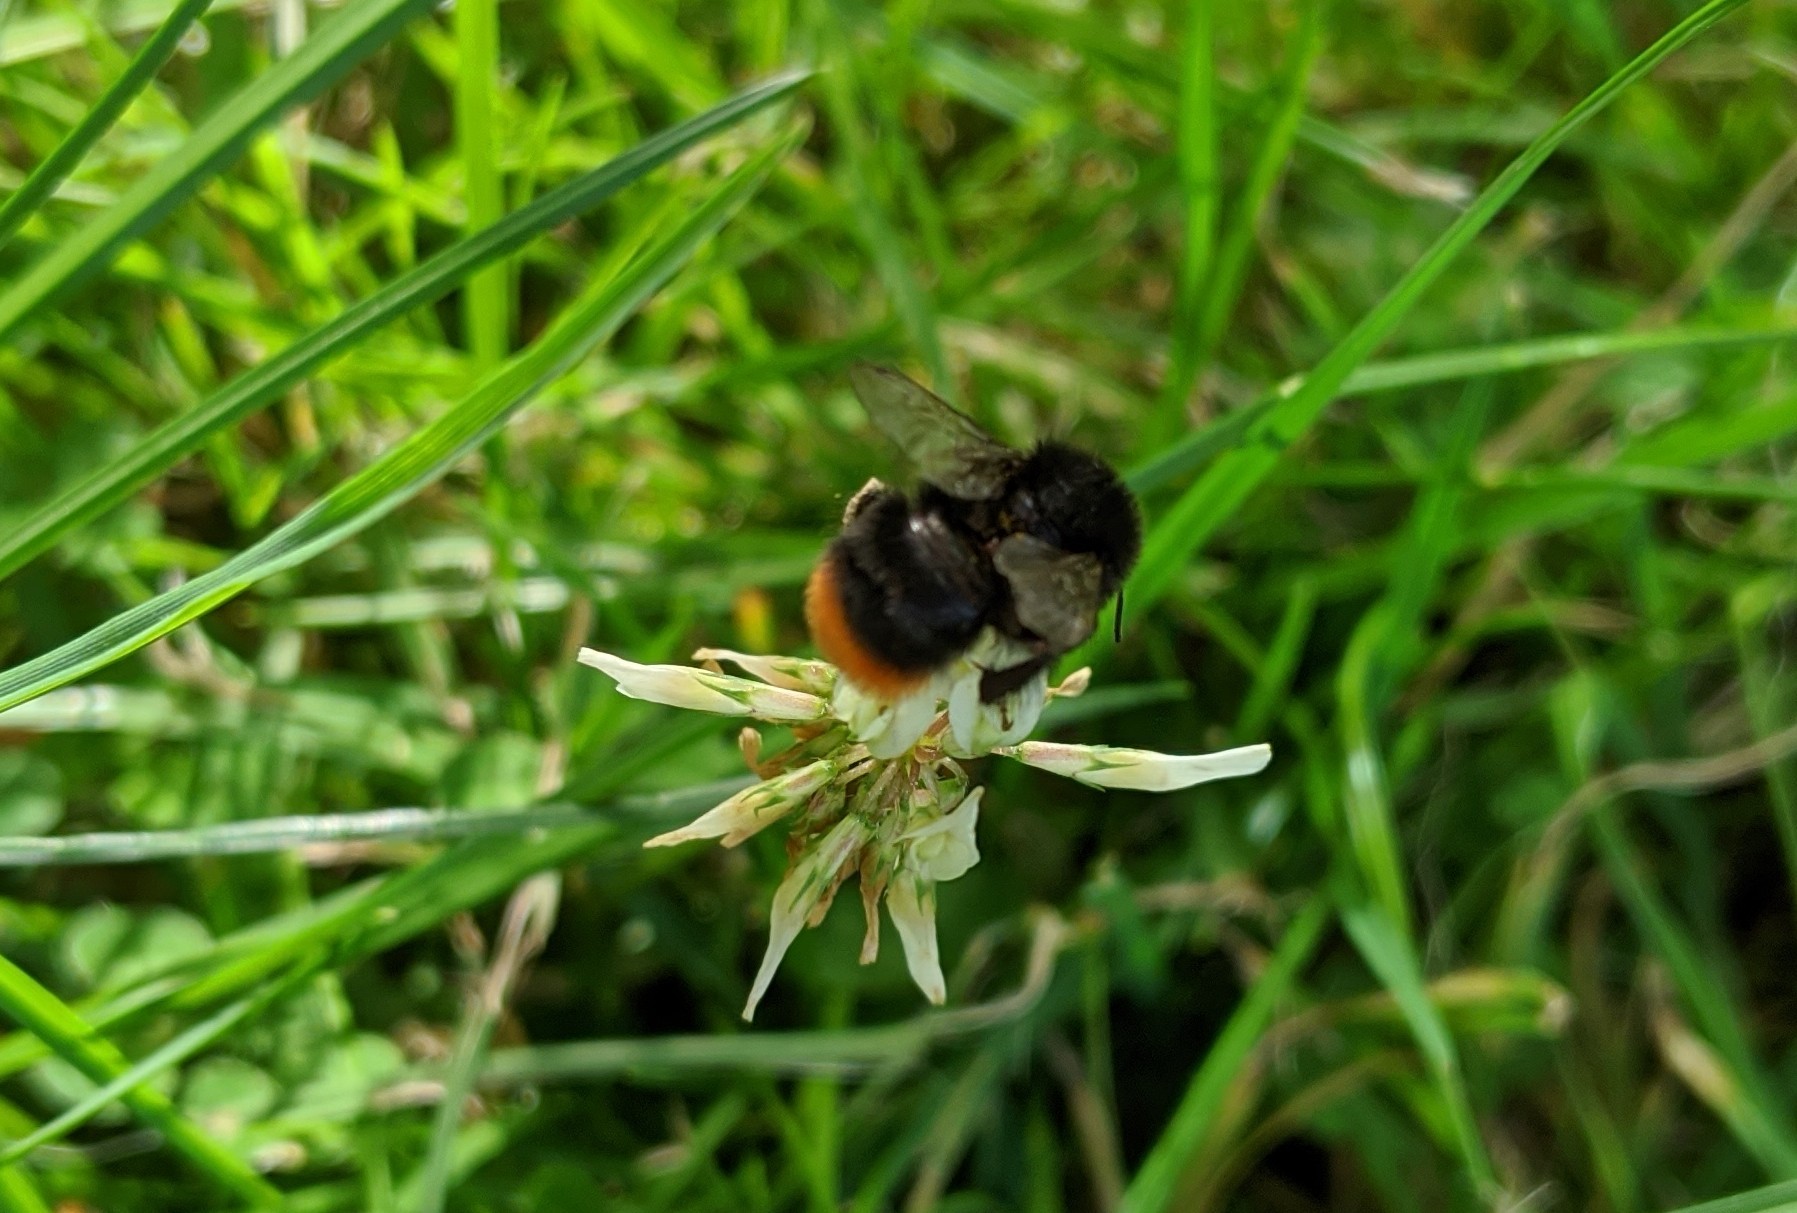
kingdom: Animalia
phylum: Arthropoda
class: Insecta
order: Hymenoptera
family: Apidae
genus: Bombus
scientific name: Bombus lapidarius
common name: Large red-tailed humble-bee
